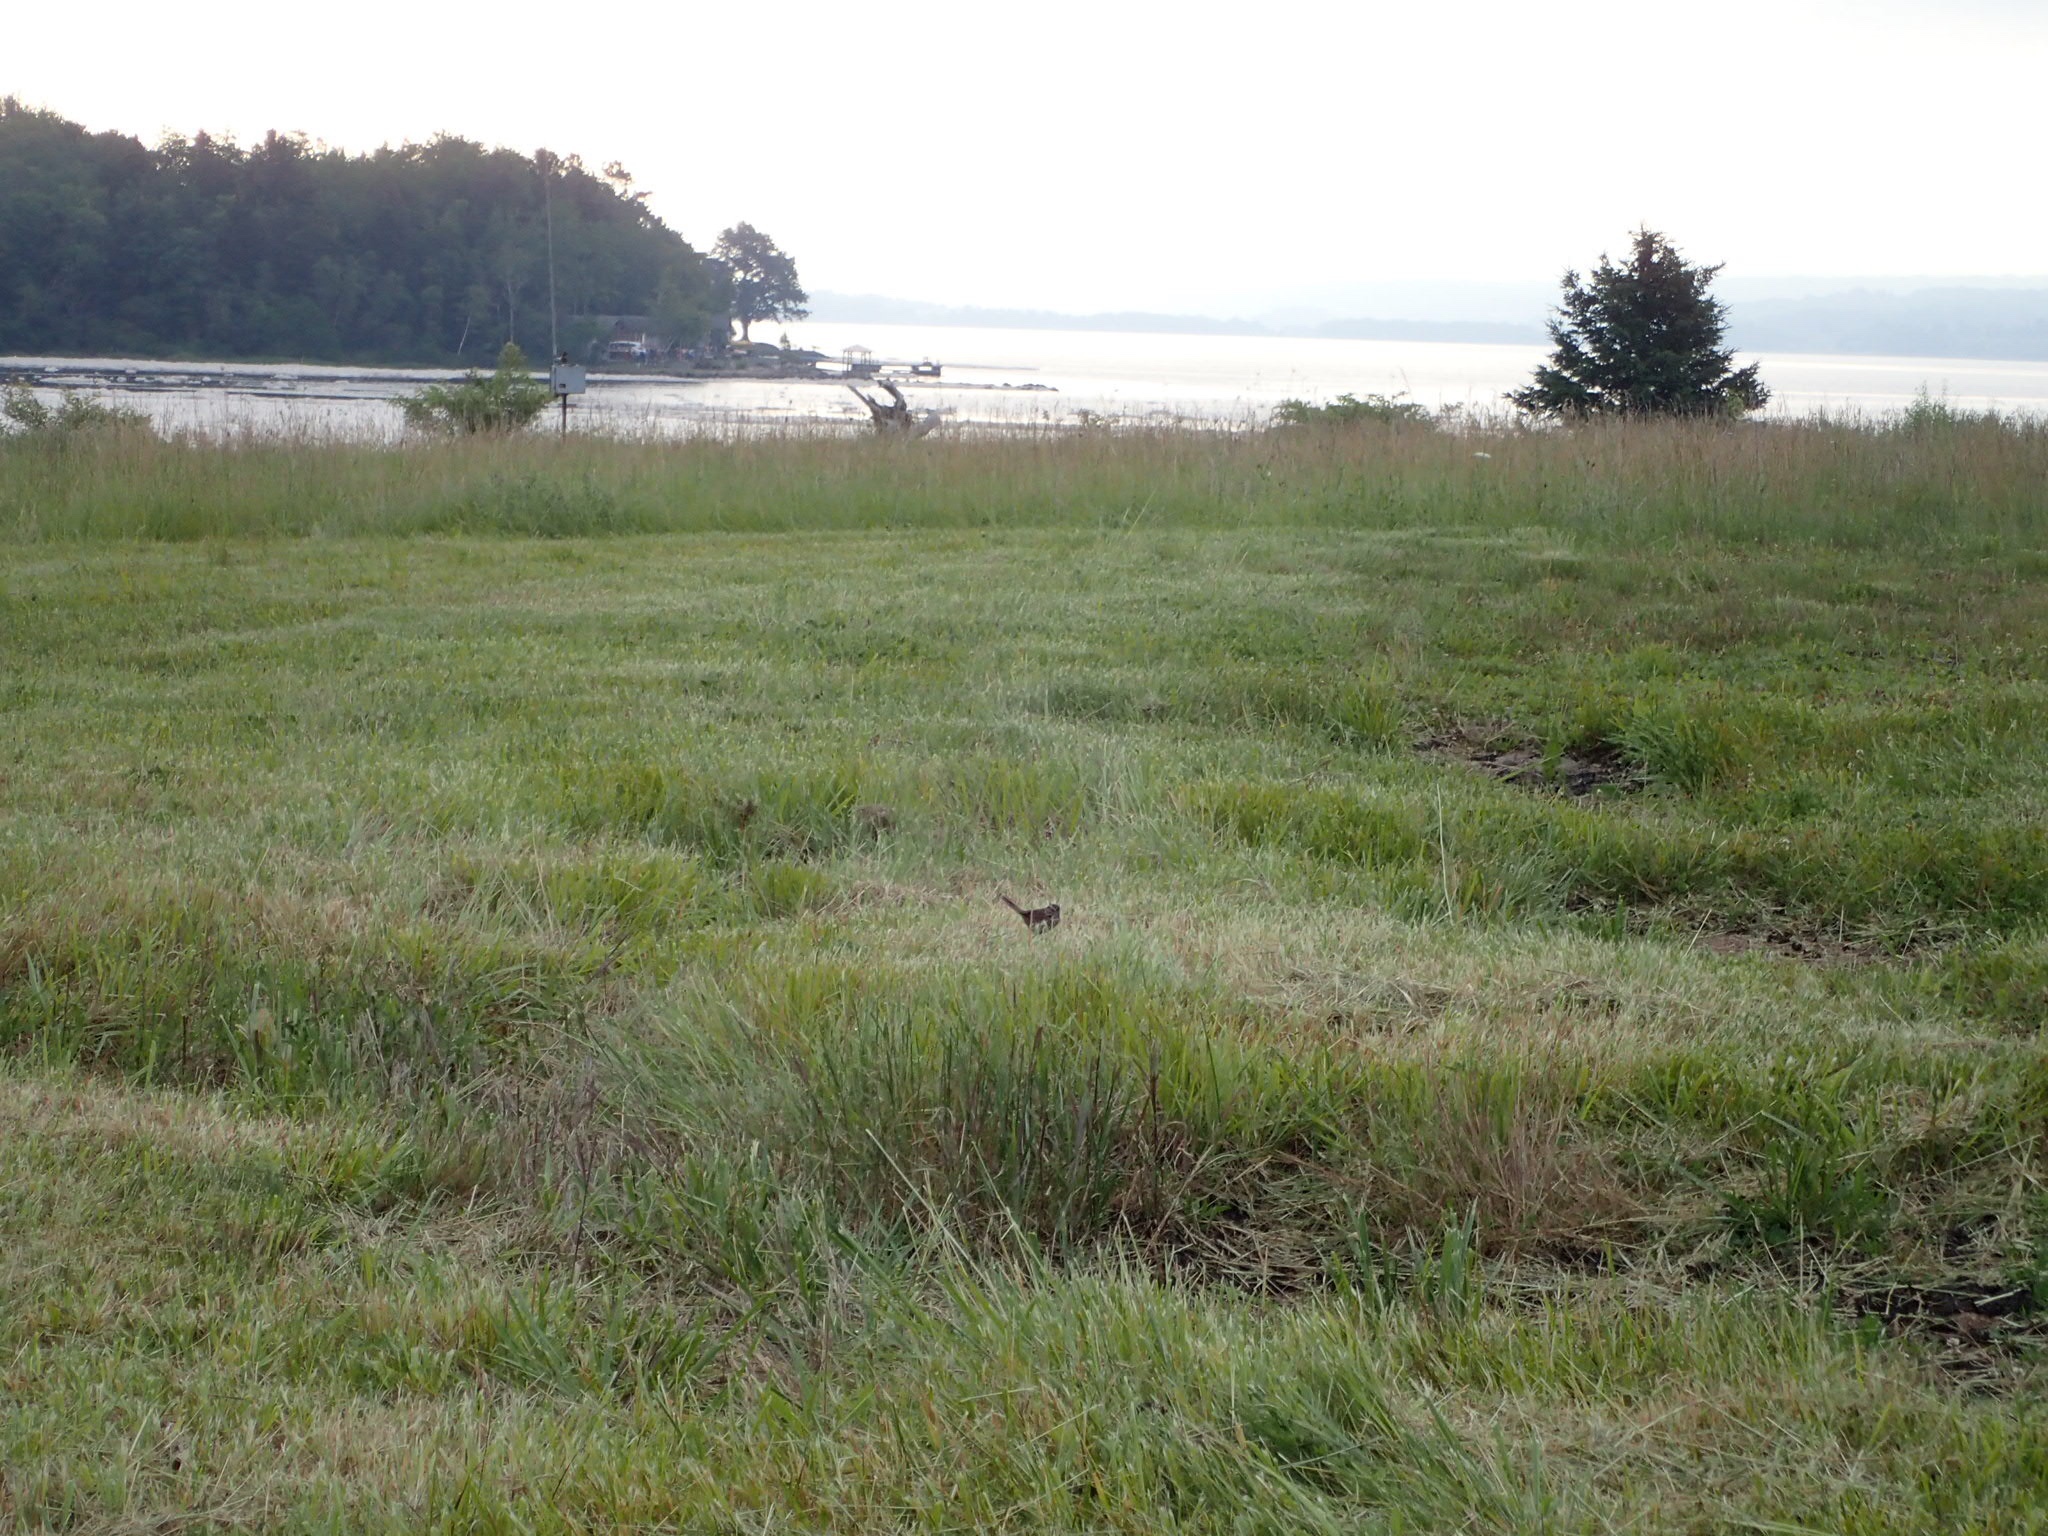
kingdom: Animalia
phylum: Chordata
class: Aves
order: Passeriformes
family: Passerellidae
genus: Melospiza
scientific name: Melospiza melodia
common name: Song sparrow
